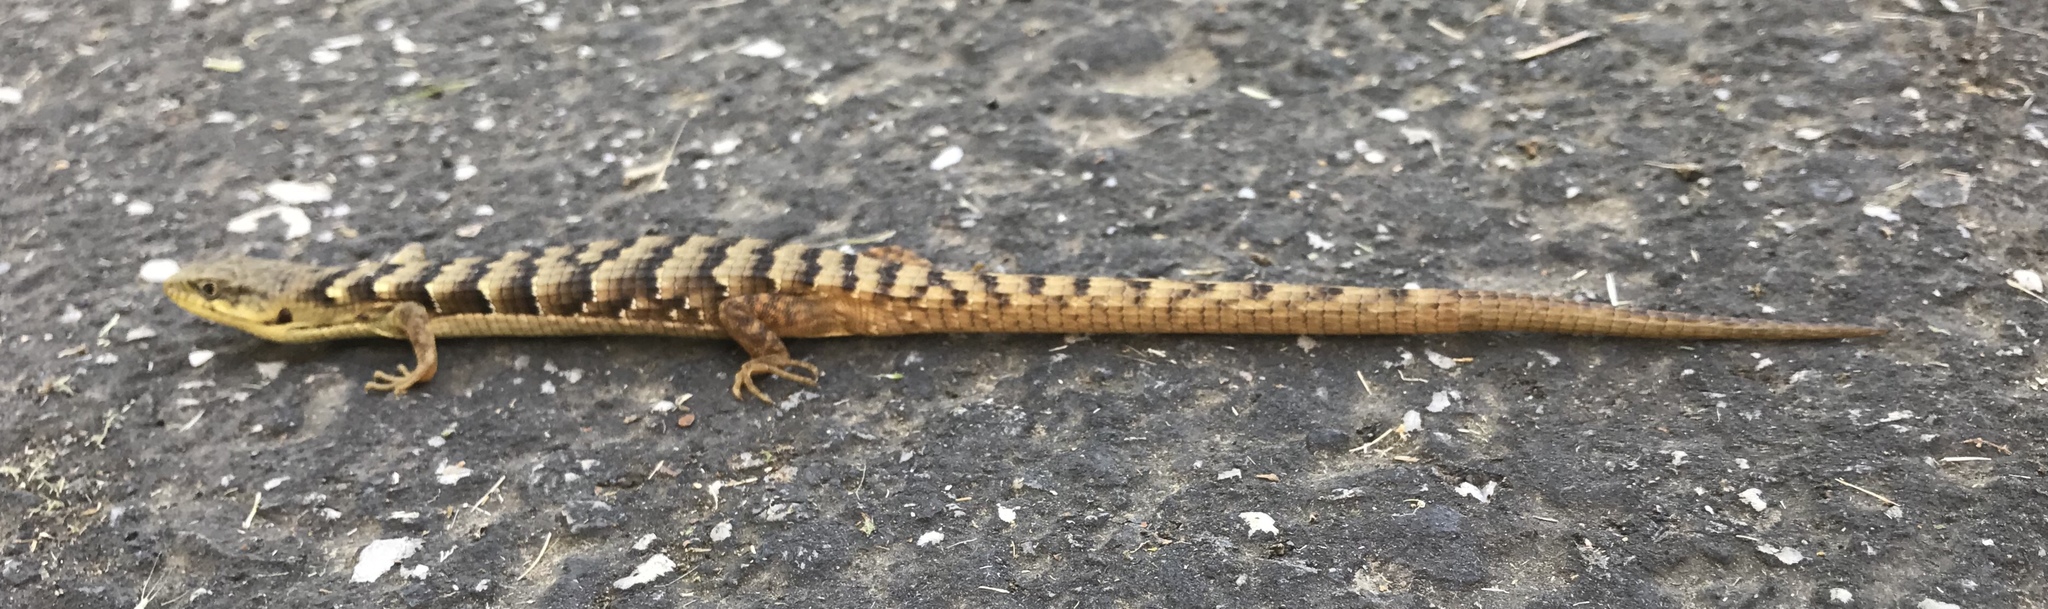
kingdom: Animalia
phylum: Chordata
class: Squamata
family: Anguidae
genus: Elgaria
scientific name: Elgaria multicarinata
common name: Southern alligator lizard
